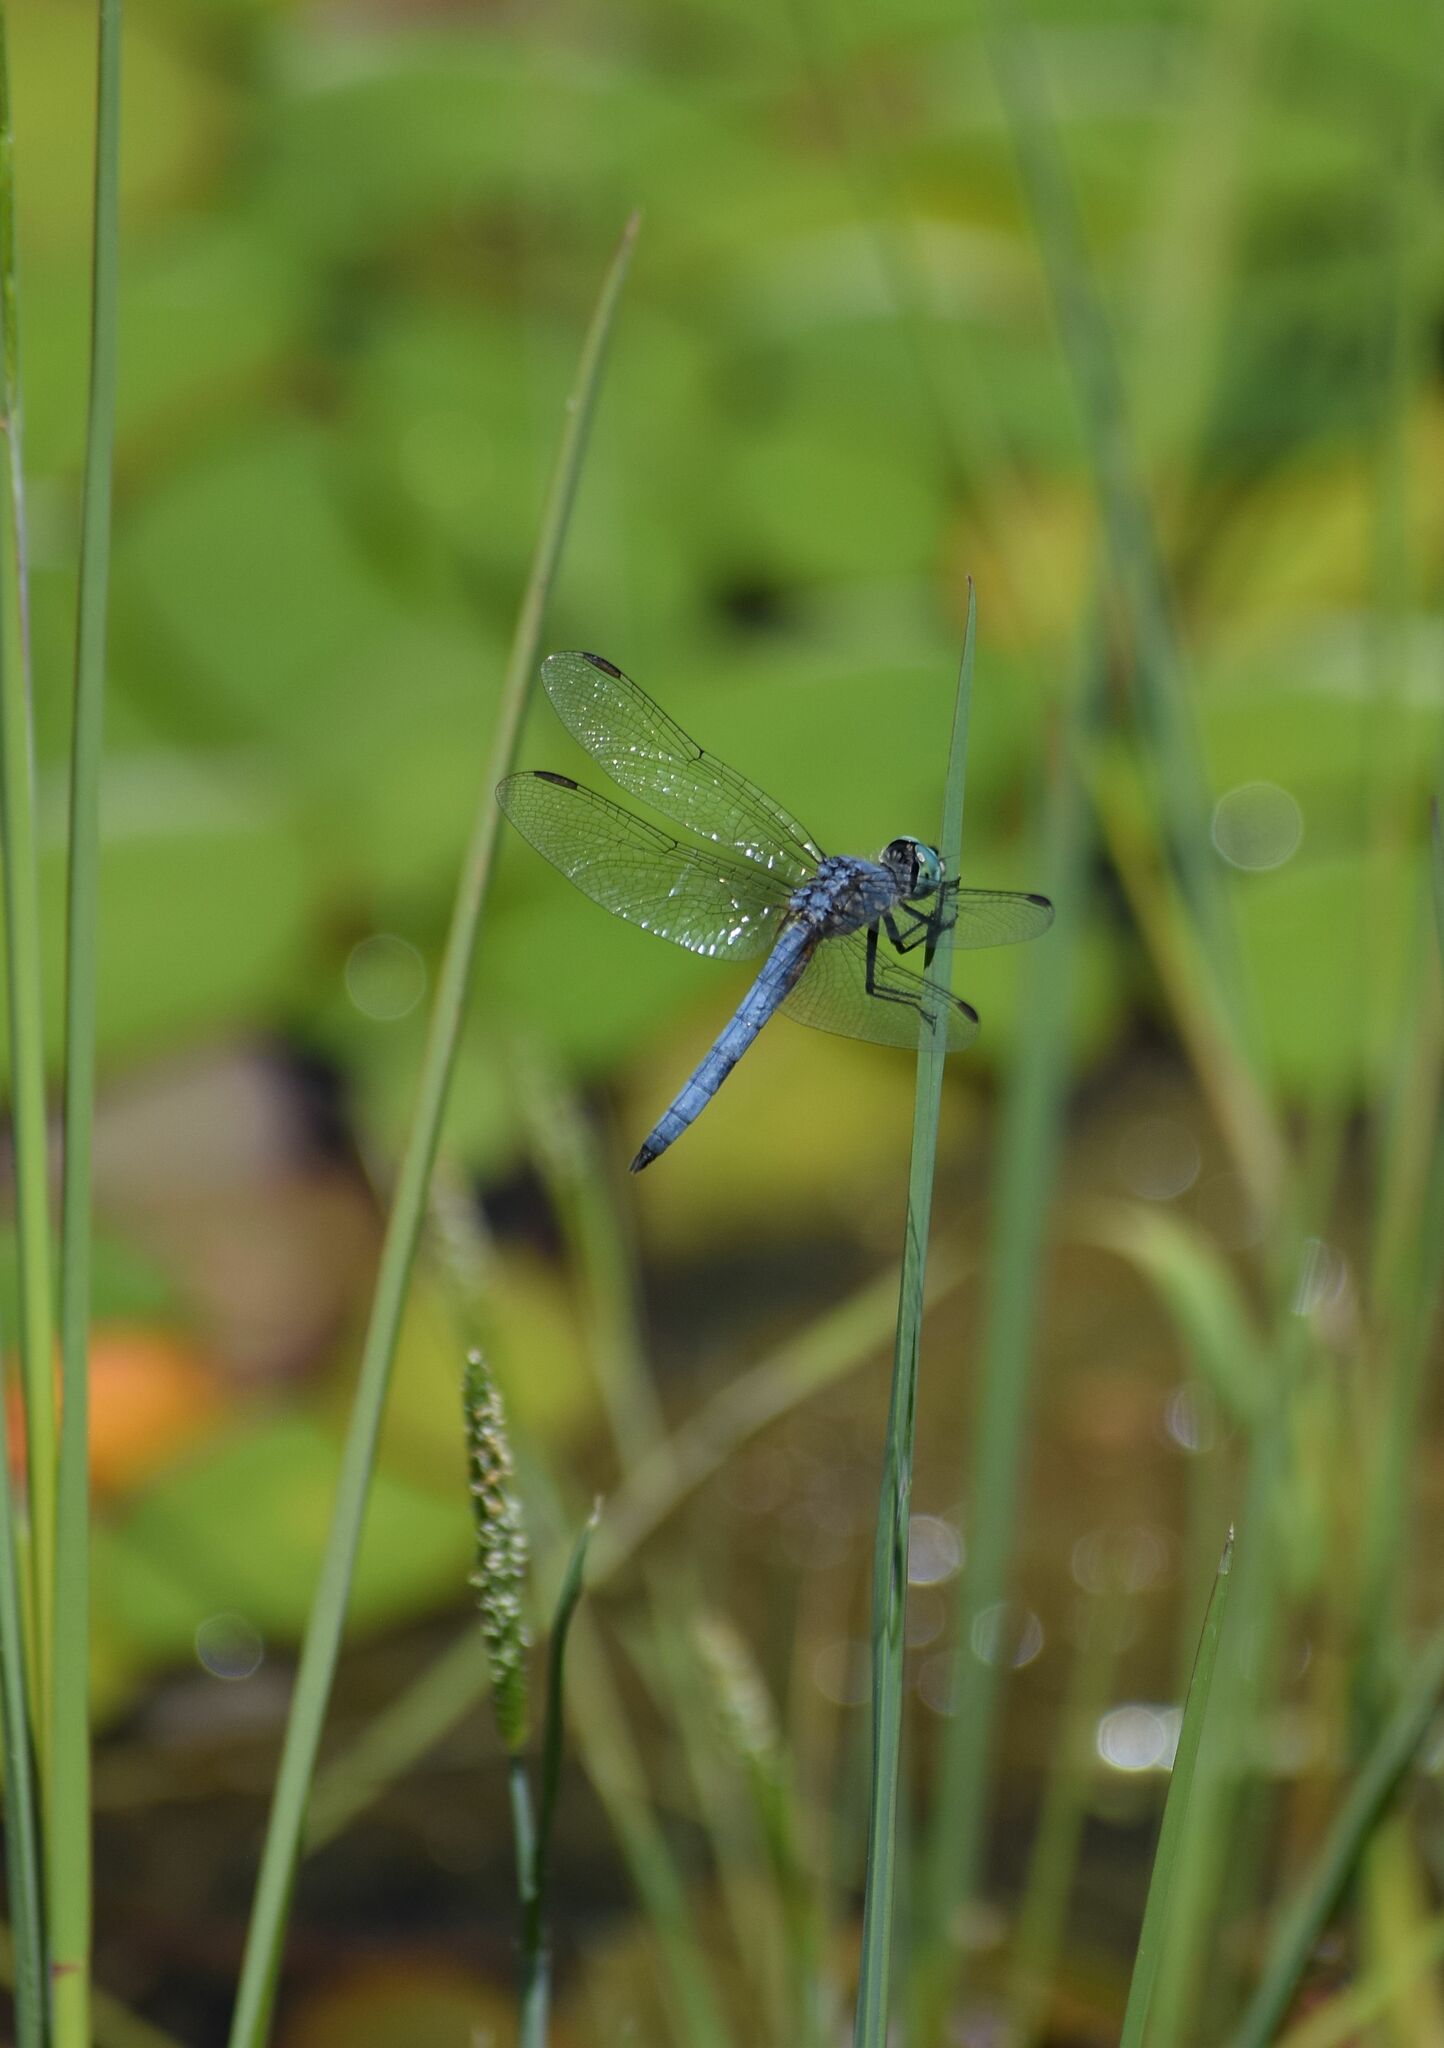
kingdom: Animalia
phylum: Arthropoda
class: Insecta
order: Odonata
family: Libellulidae
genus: Pachydiplax
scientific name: Pachydiplax longipennis
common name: Blue dasher
